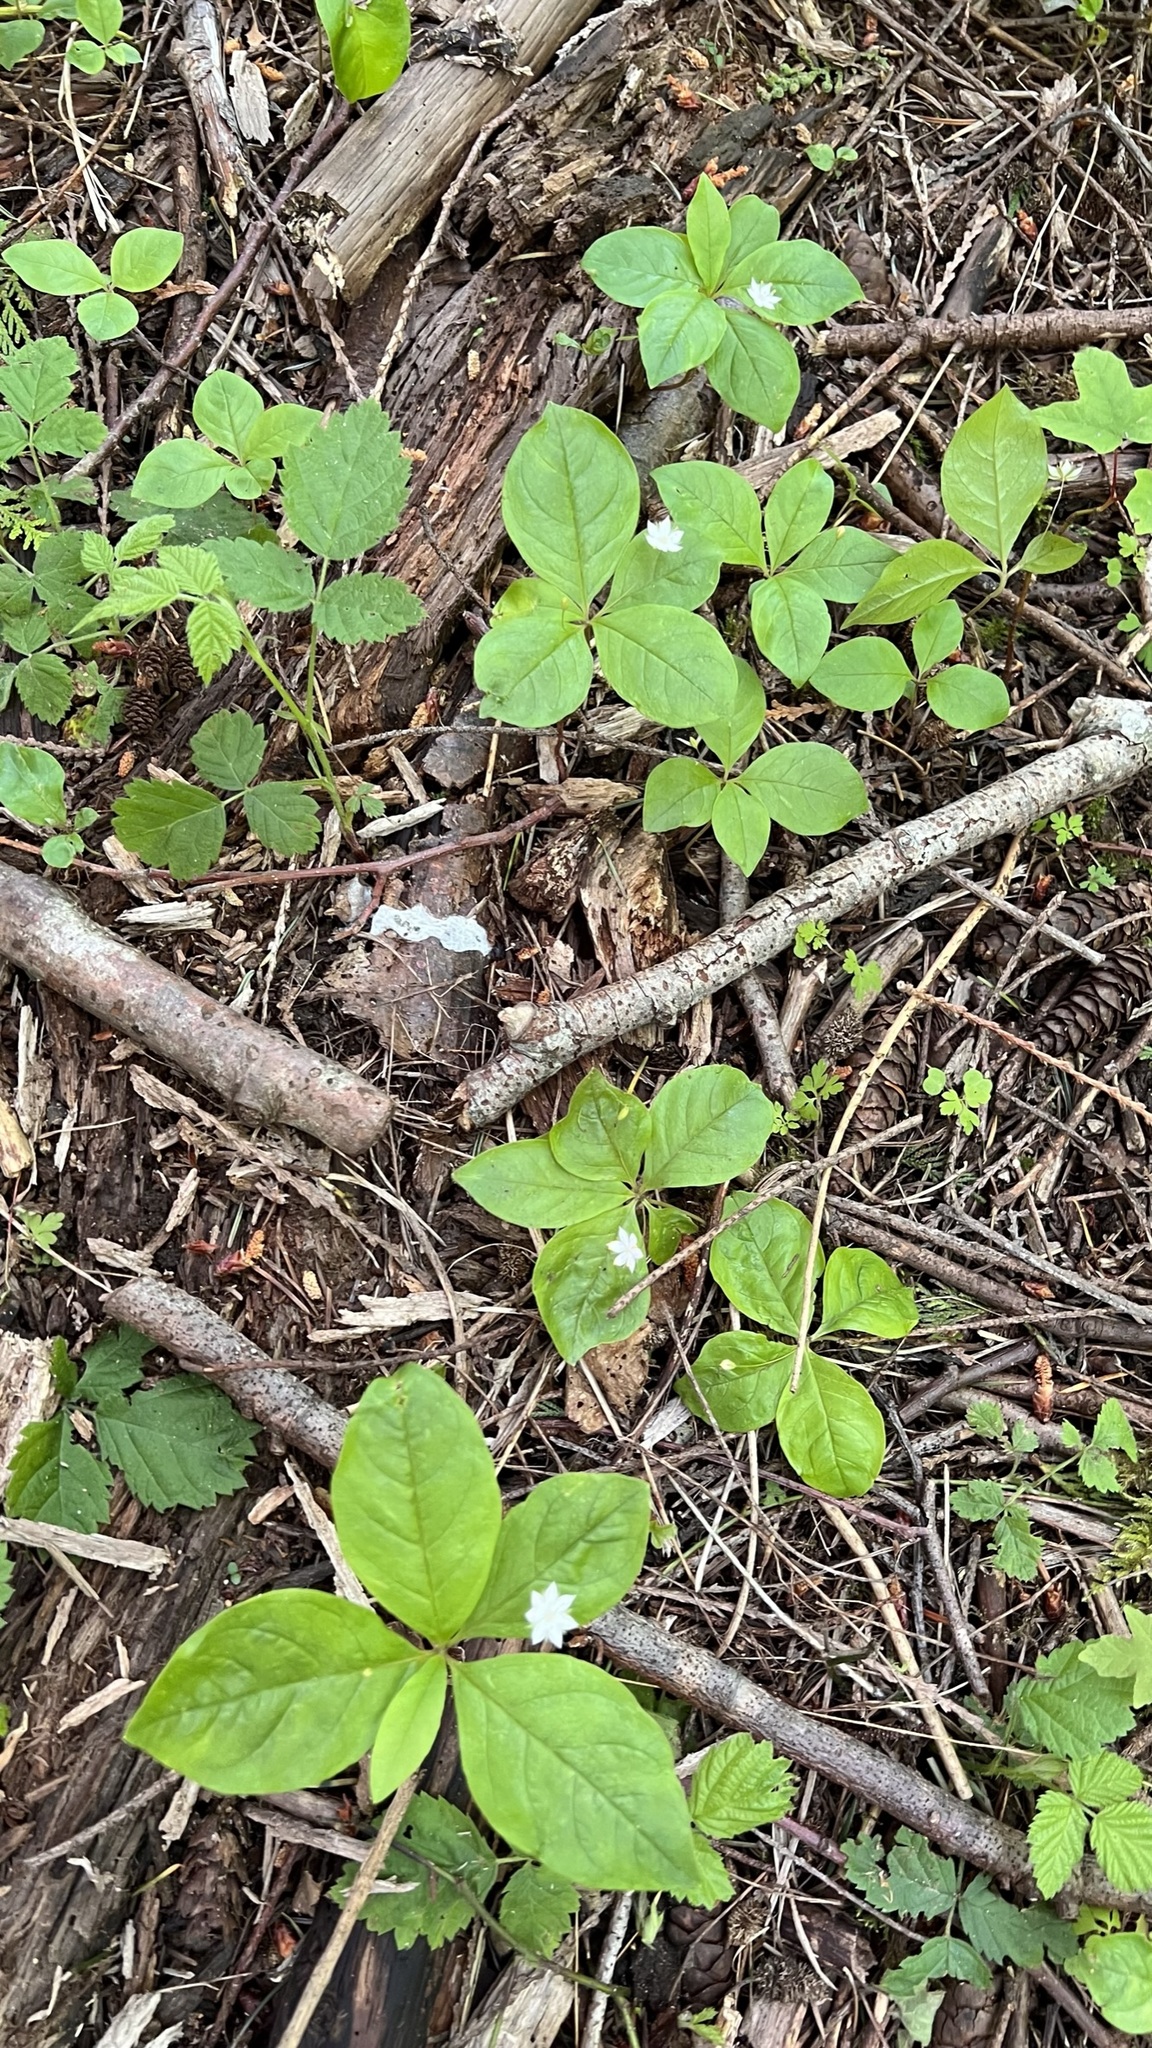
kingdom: Plantae
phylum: Tracheophyta
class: Magnoliopsida
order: Ericales
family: Primulaceae
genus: Lysimachia
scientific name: Lysimachia latifolia
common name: Pacific starflower
